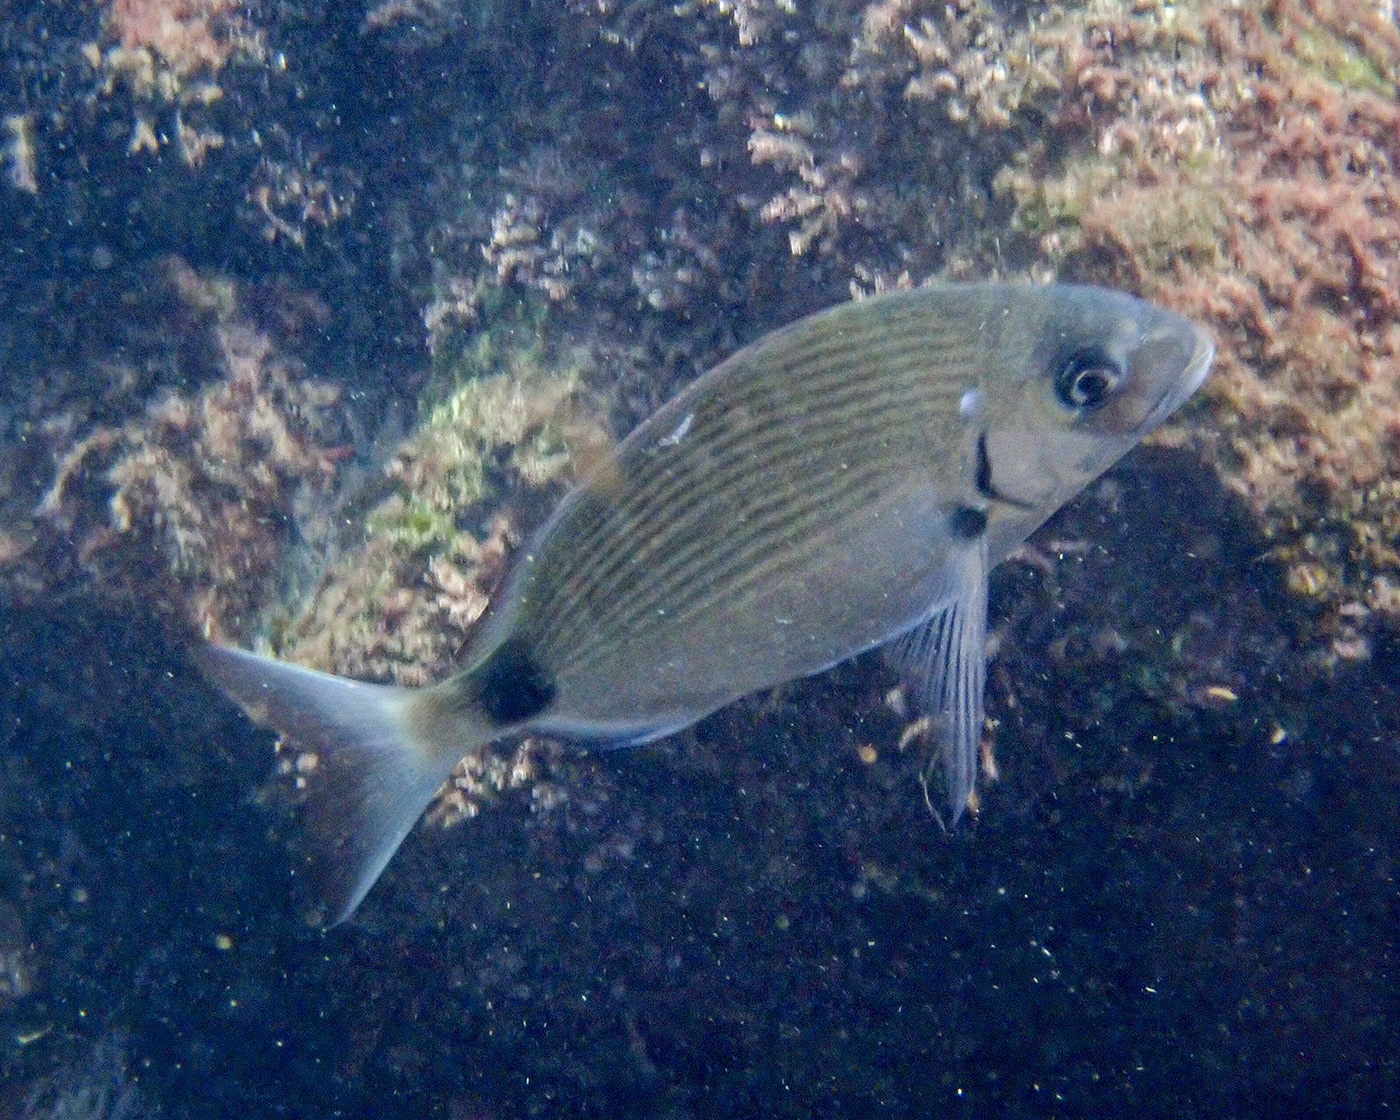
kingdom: Animalia
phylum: Chordata
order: Perciformes
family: Sparidae
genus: Diplodus
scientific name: Diplodus sargus
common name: White seabream
